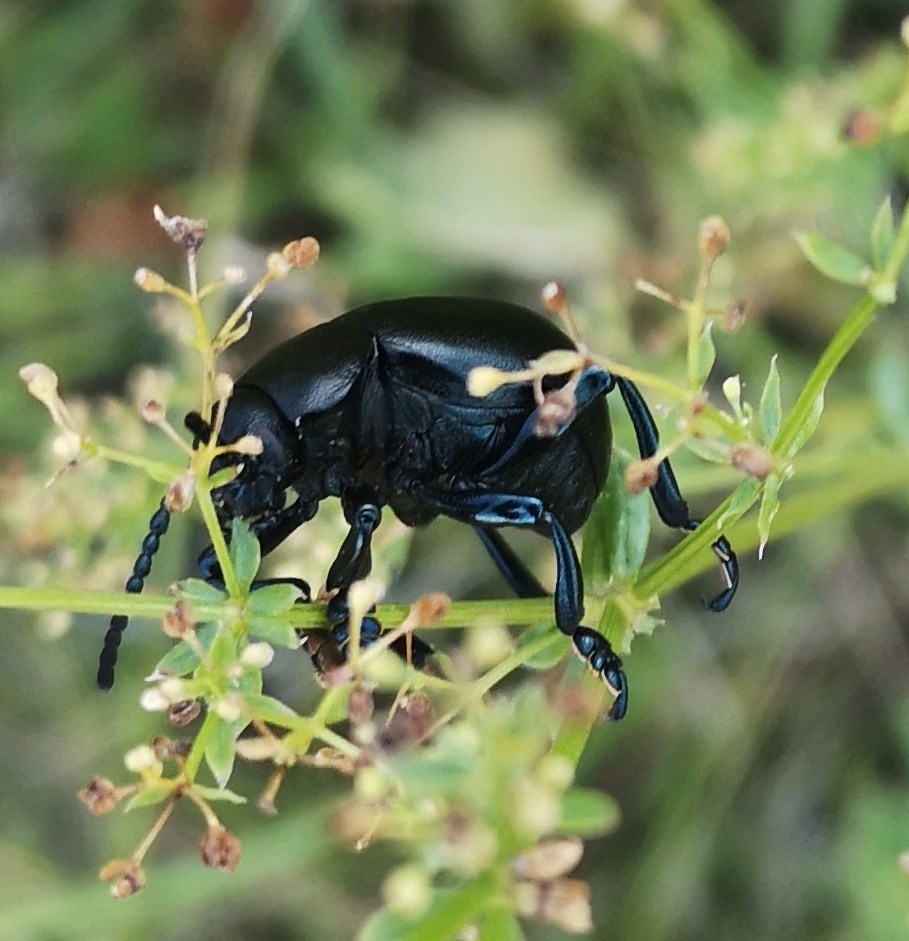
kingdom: Animalia
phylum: Arthropoda
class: Insecta
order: Coleoptera
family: Chrysomelidae
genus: Timarcha
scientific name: Timarcha tenebricosa
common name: Bloody-nosed beetle
